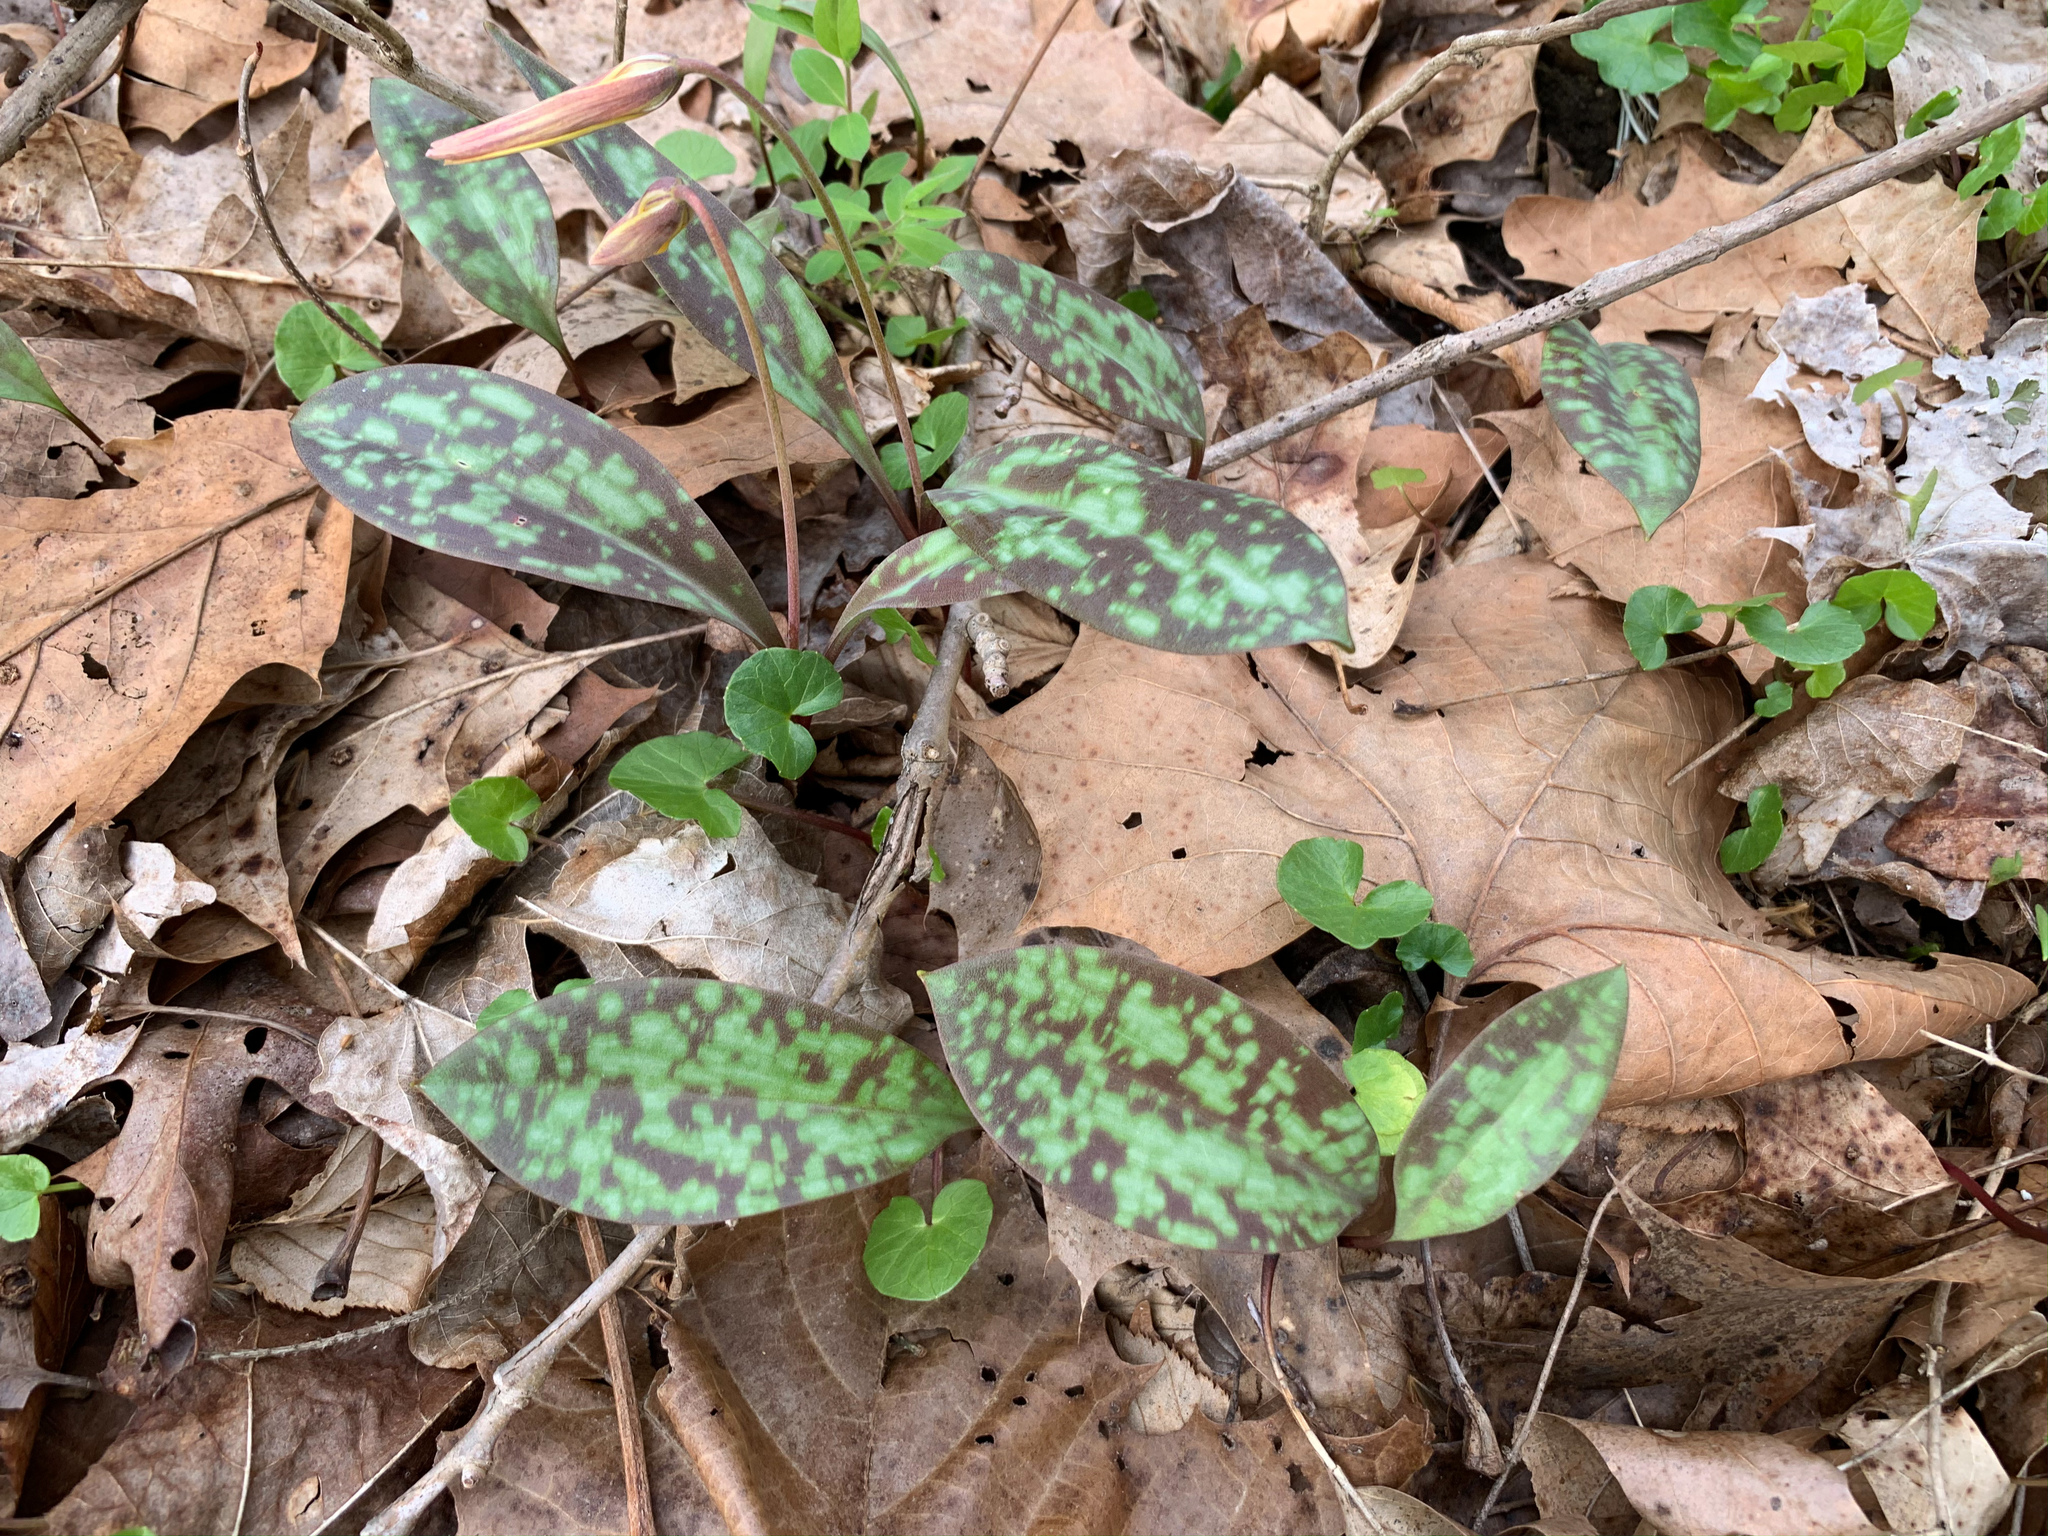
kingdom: Plantae
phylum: Tracheophyta
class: Liliopsida
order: Liliales
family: Liliaceae
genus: Erythronium
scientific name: Erythronium americanum
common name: Yellow adder's-tongue
